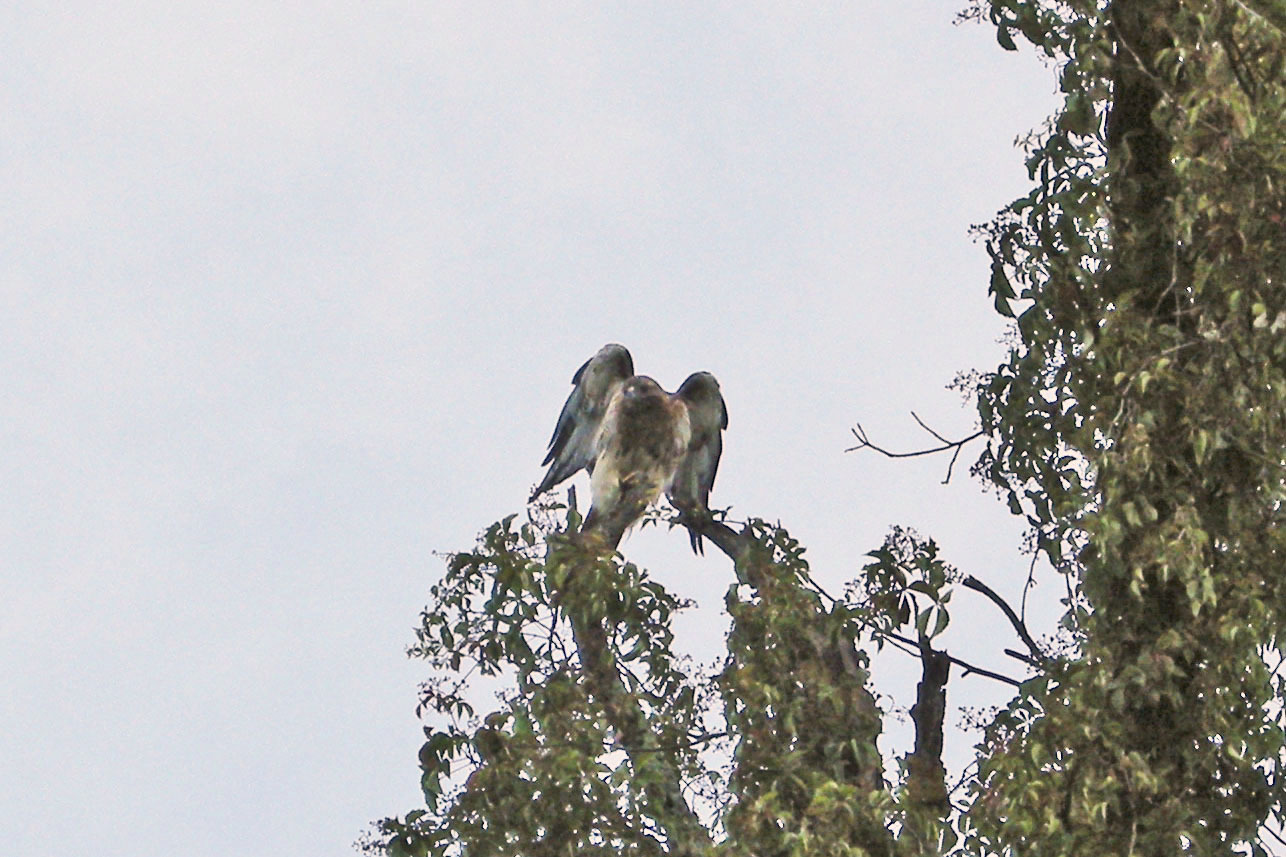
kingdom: Animalia
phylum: Chordata
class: Aves
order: Accipitriformes
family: Accipitridae
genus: Buteo
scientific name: Buteo jamaicensis
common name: Red-tailed hawk
